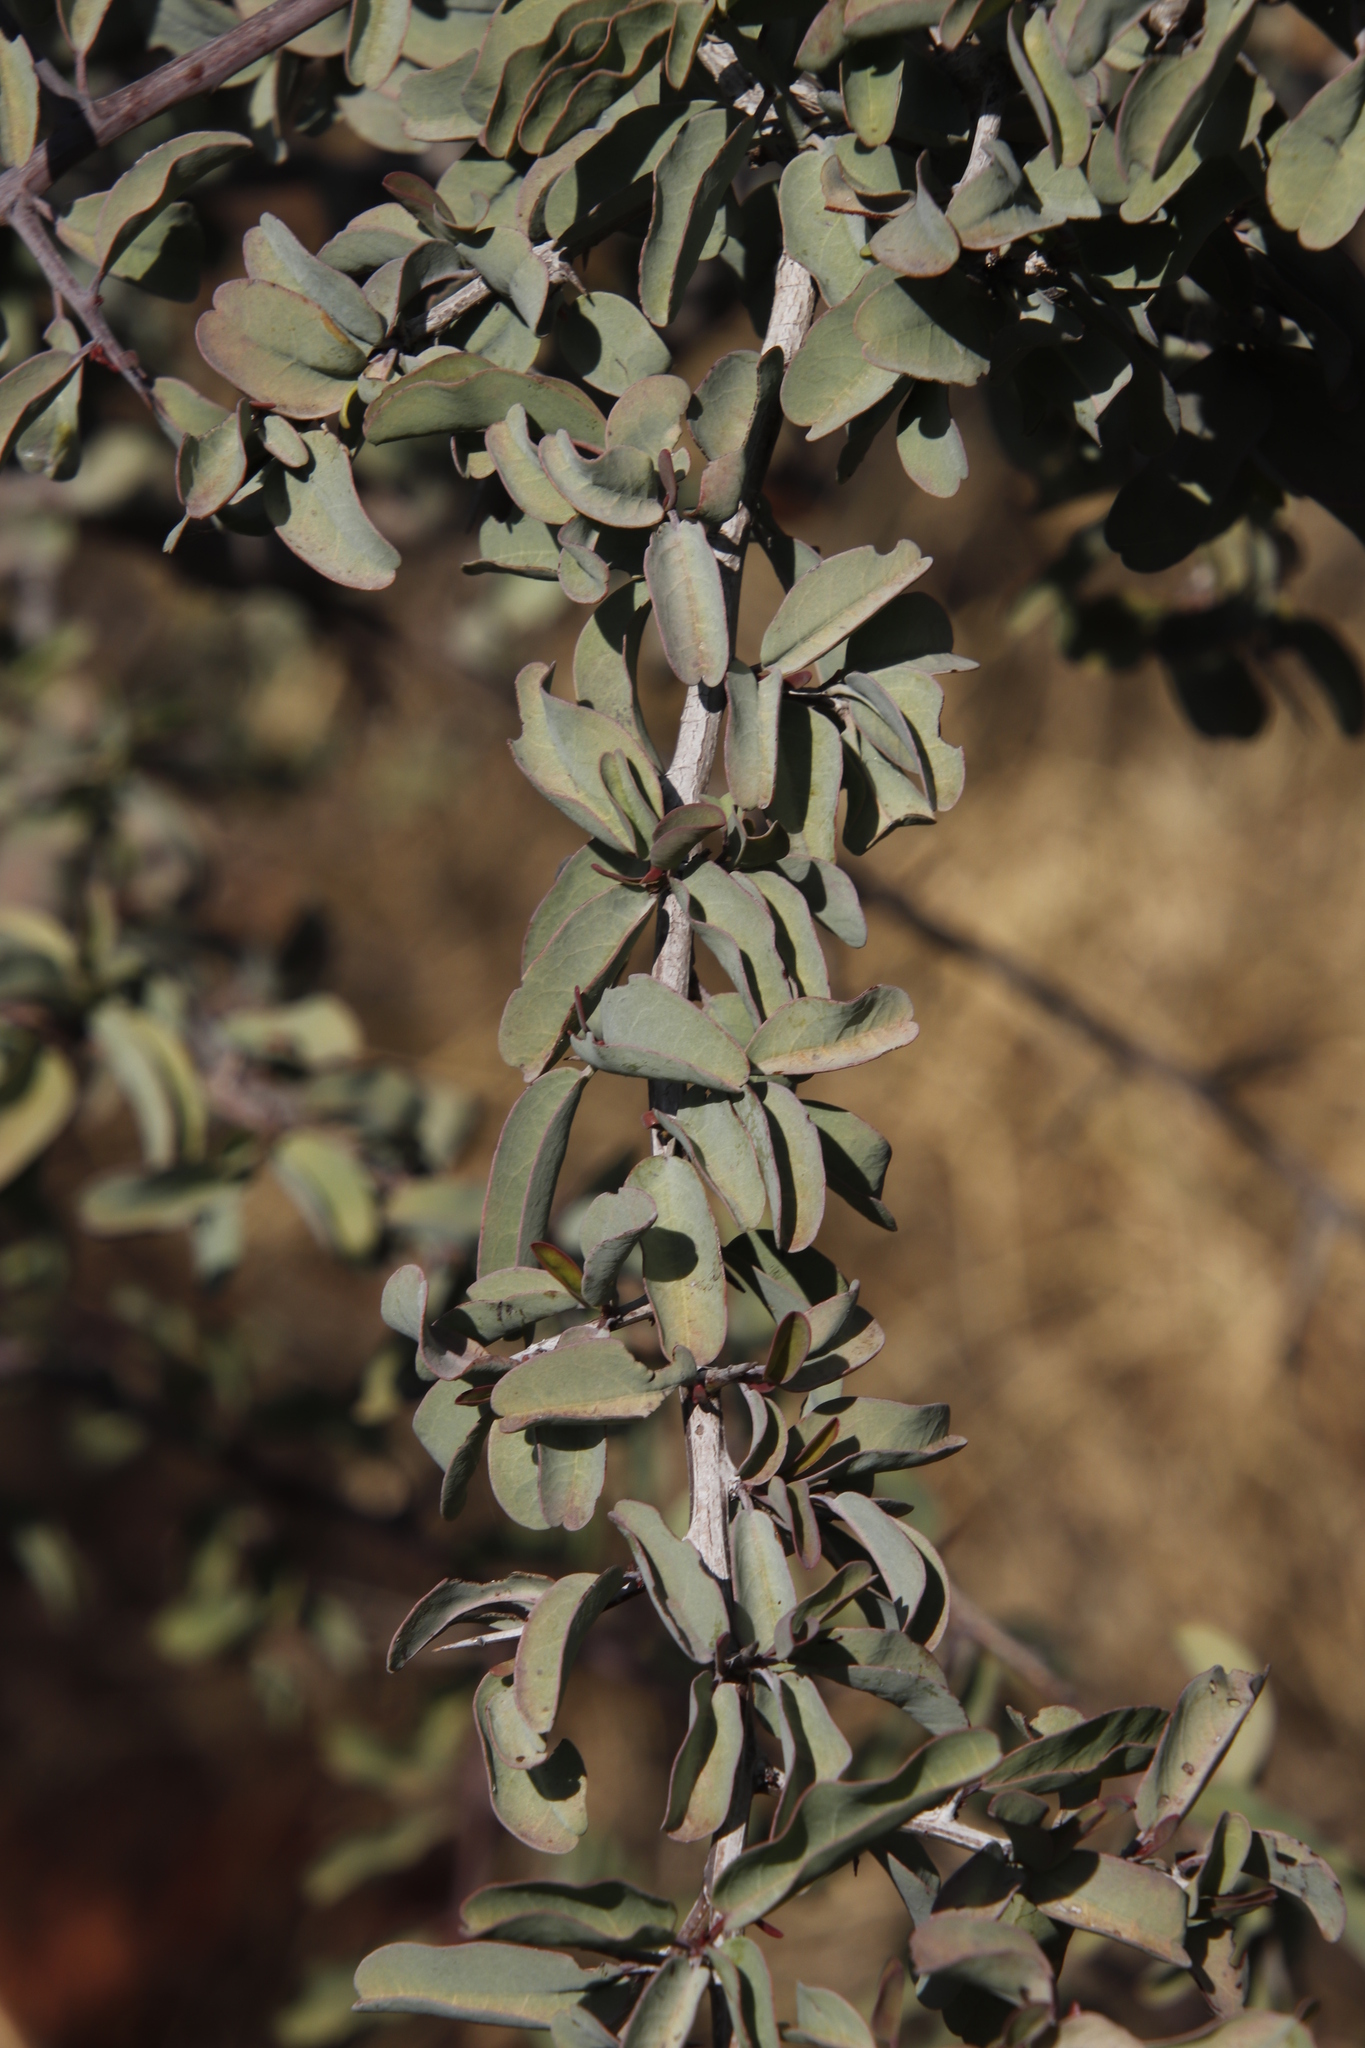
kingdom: Plantae
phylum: Tracheophyta
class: Magnoliopsida
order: Myrtales
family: Combretaceae
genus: Terminalia
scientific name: Terminalia prunioides
